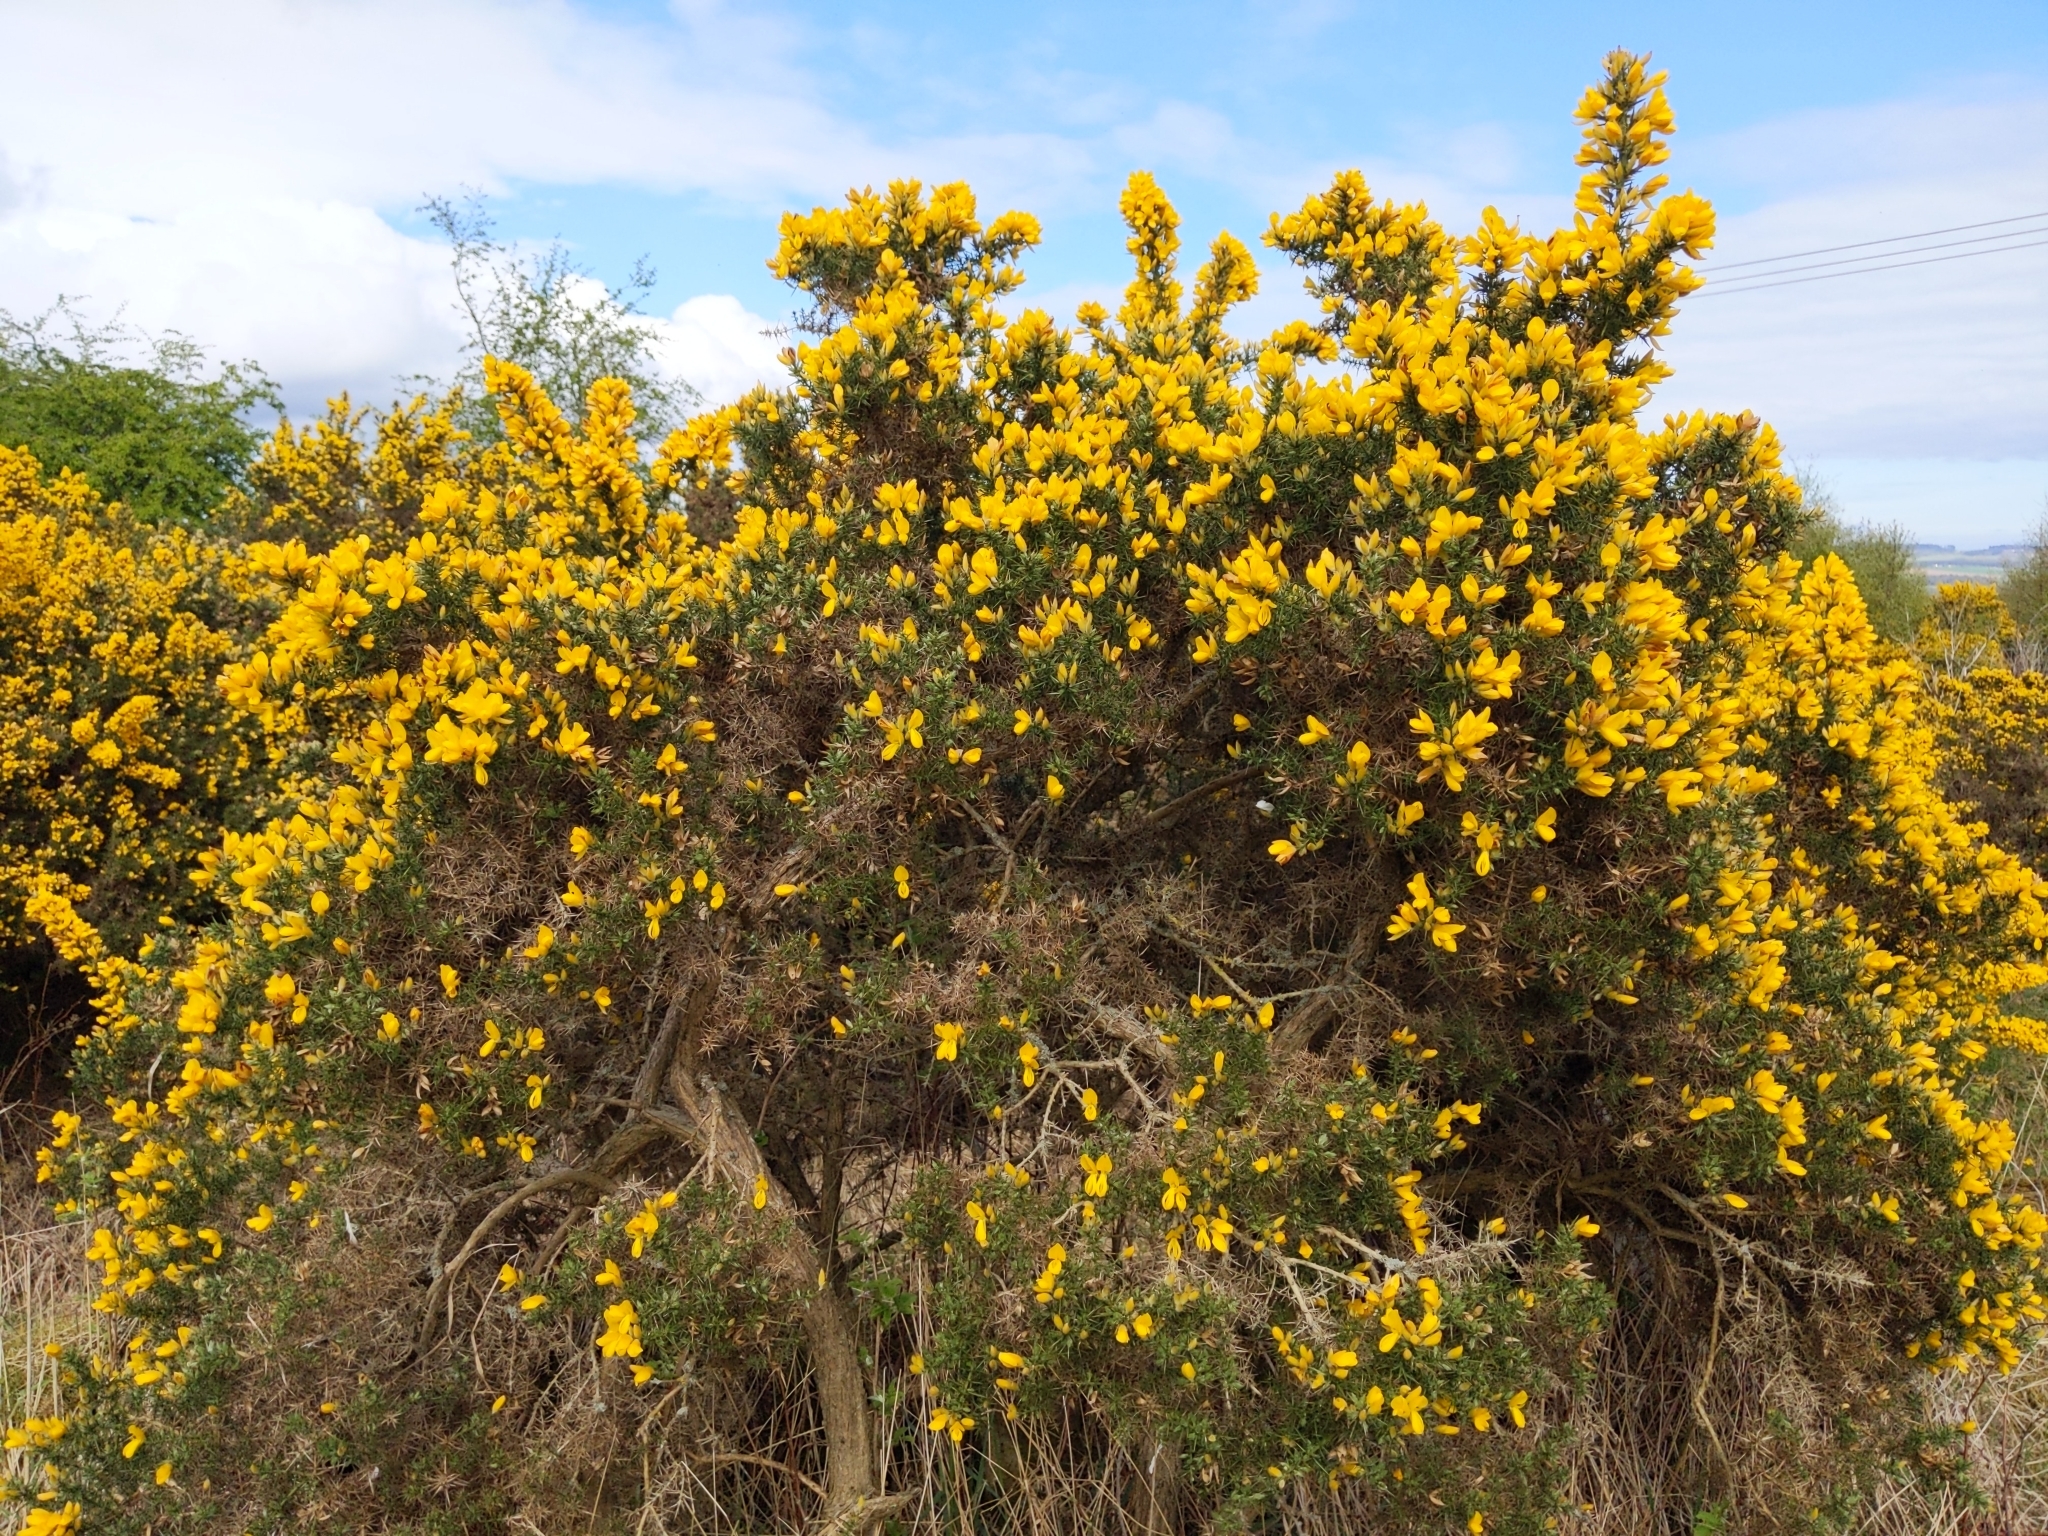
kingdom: Plantae
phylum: Tracheophyta
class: Magnoliopsida
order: Fabales
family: Fabaceae
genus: Ulex
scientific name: Ulex europaeus
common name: Common gorse
